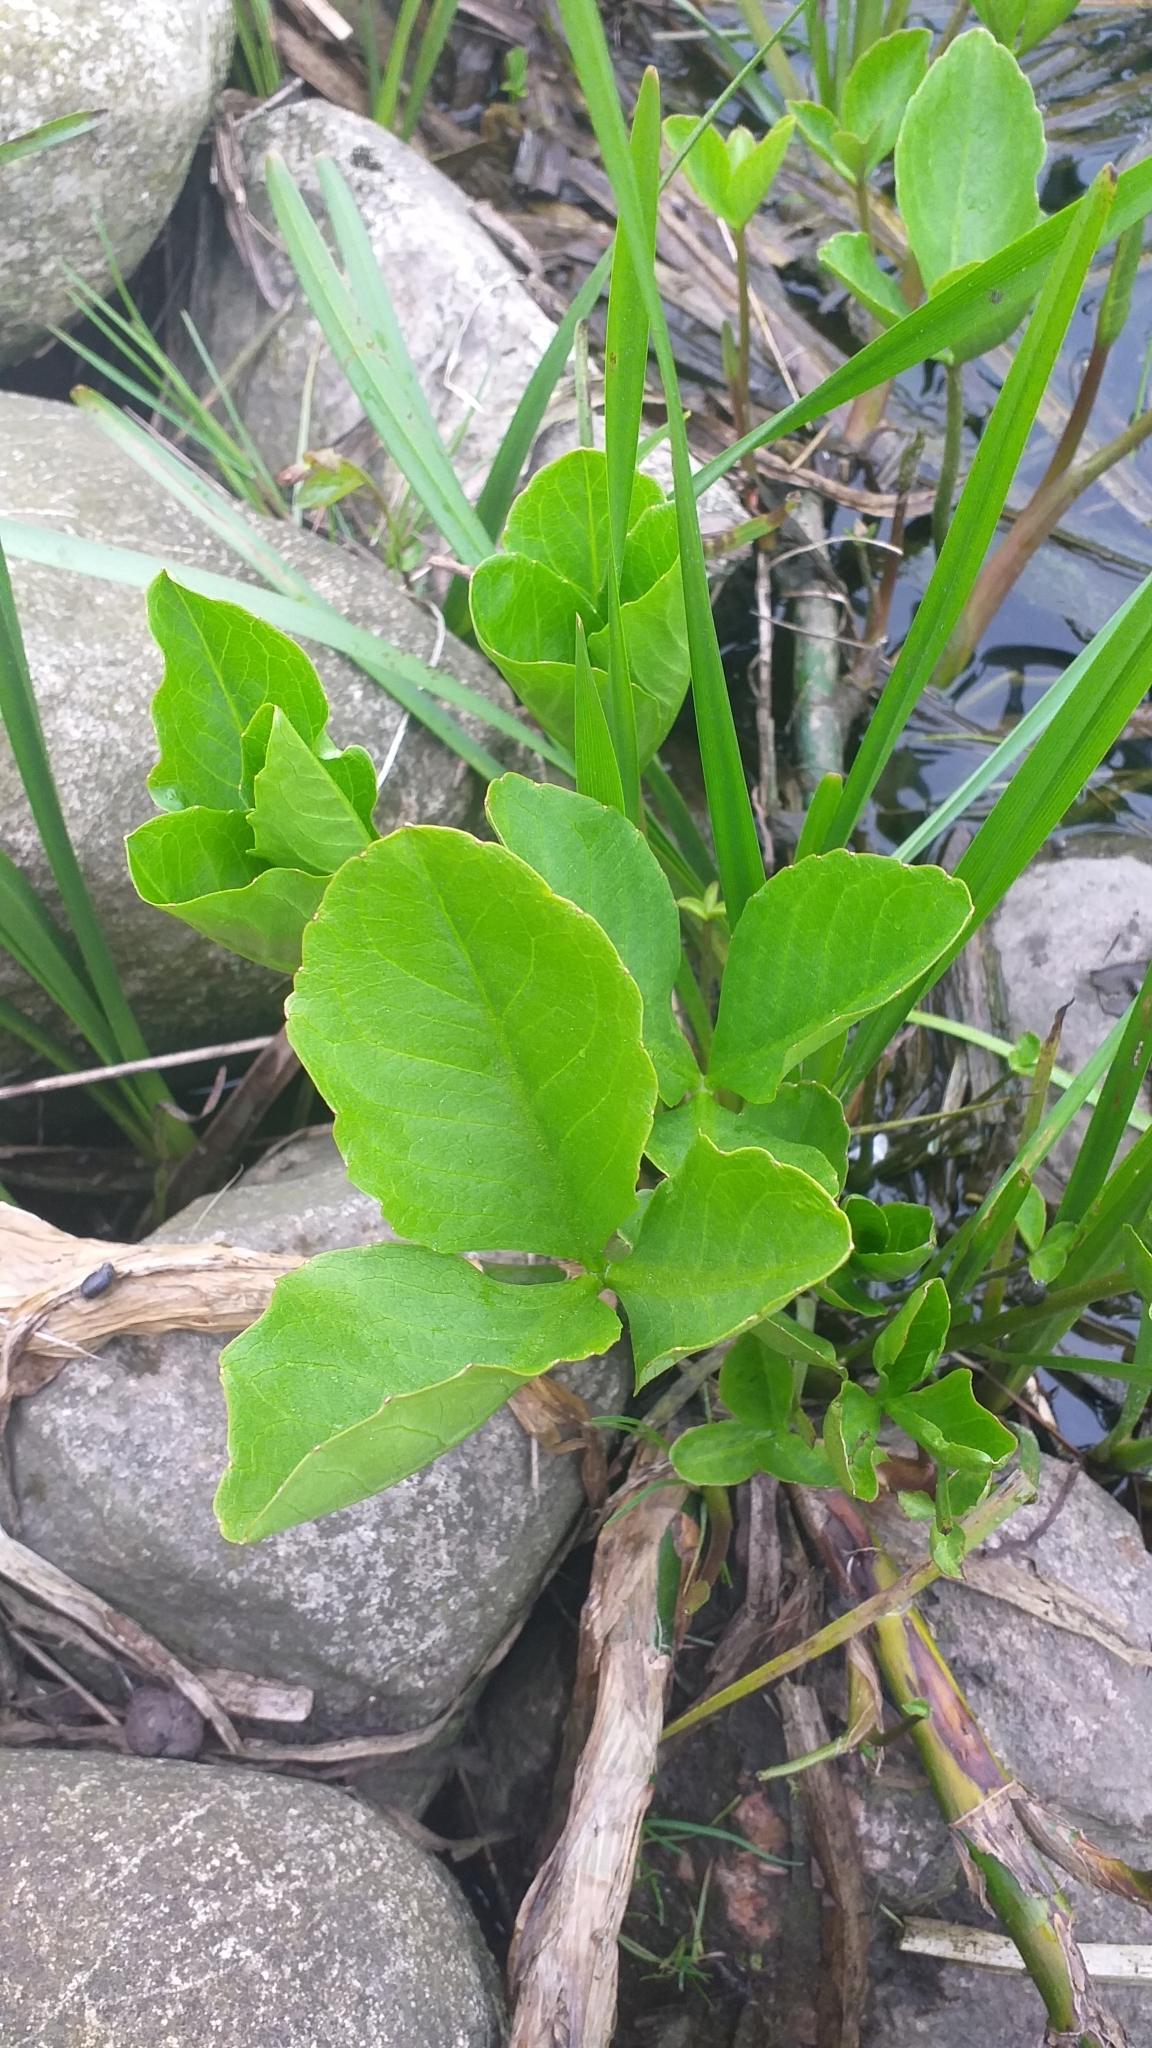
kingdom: Plantae
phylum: Tracheophyta
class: Magnoliopsida
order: Asterales
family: Menyanthaceae
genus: Menyanthes
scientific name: Menyanthes trifoliata
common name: Bogbean
